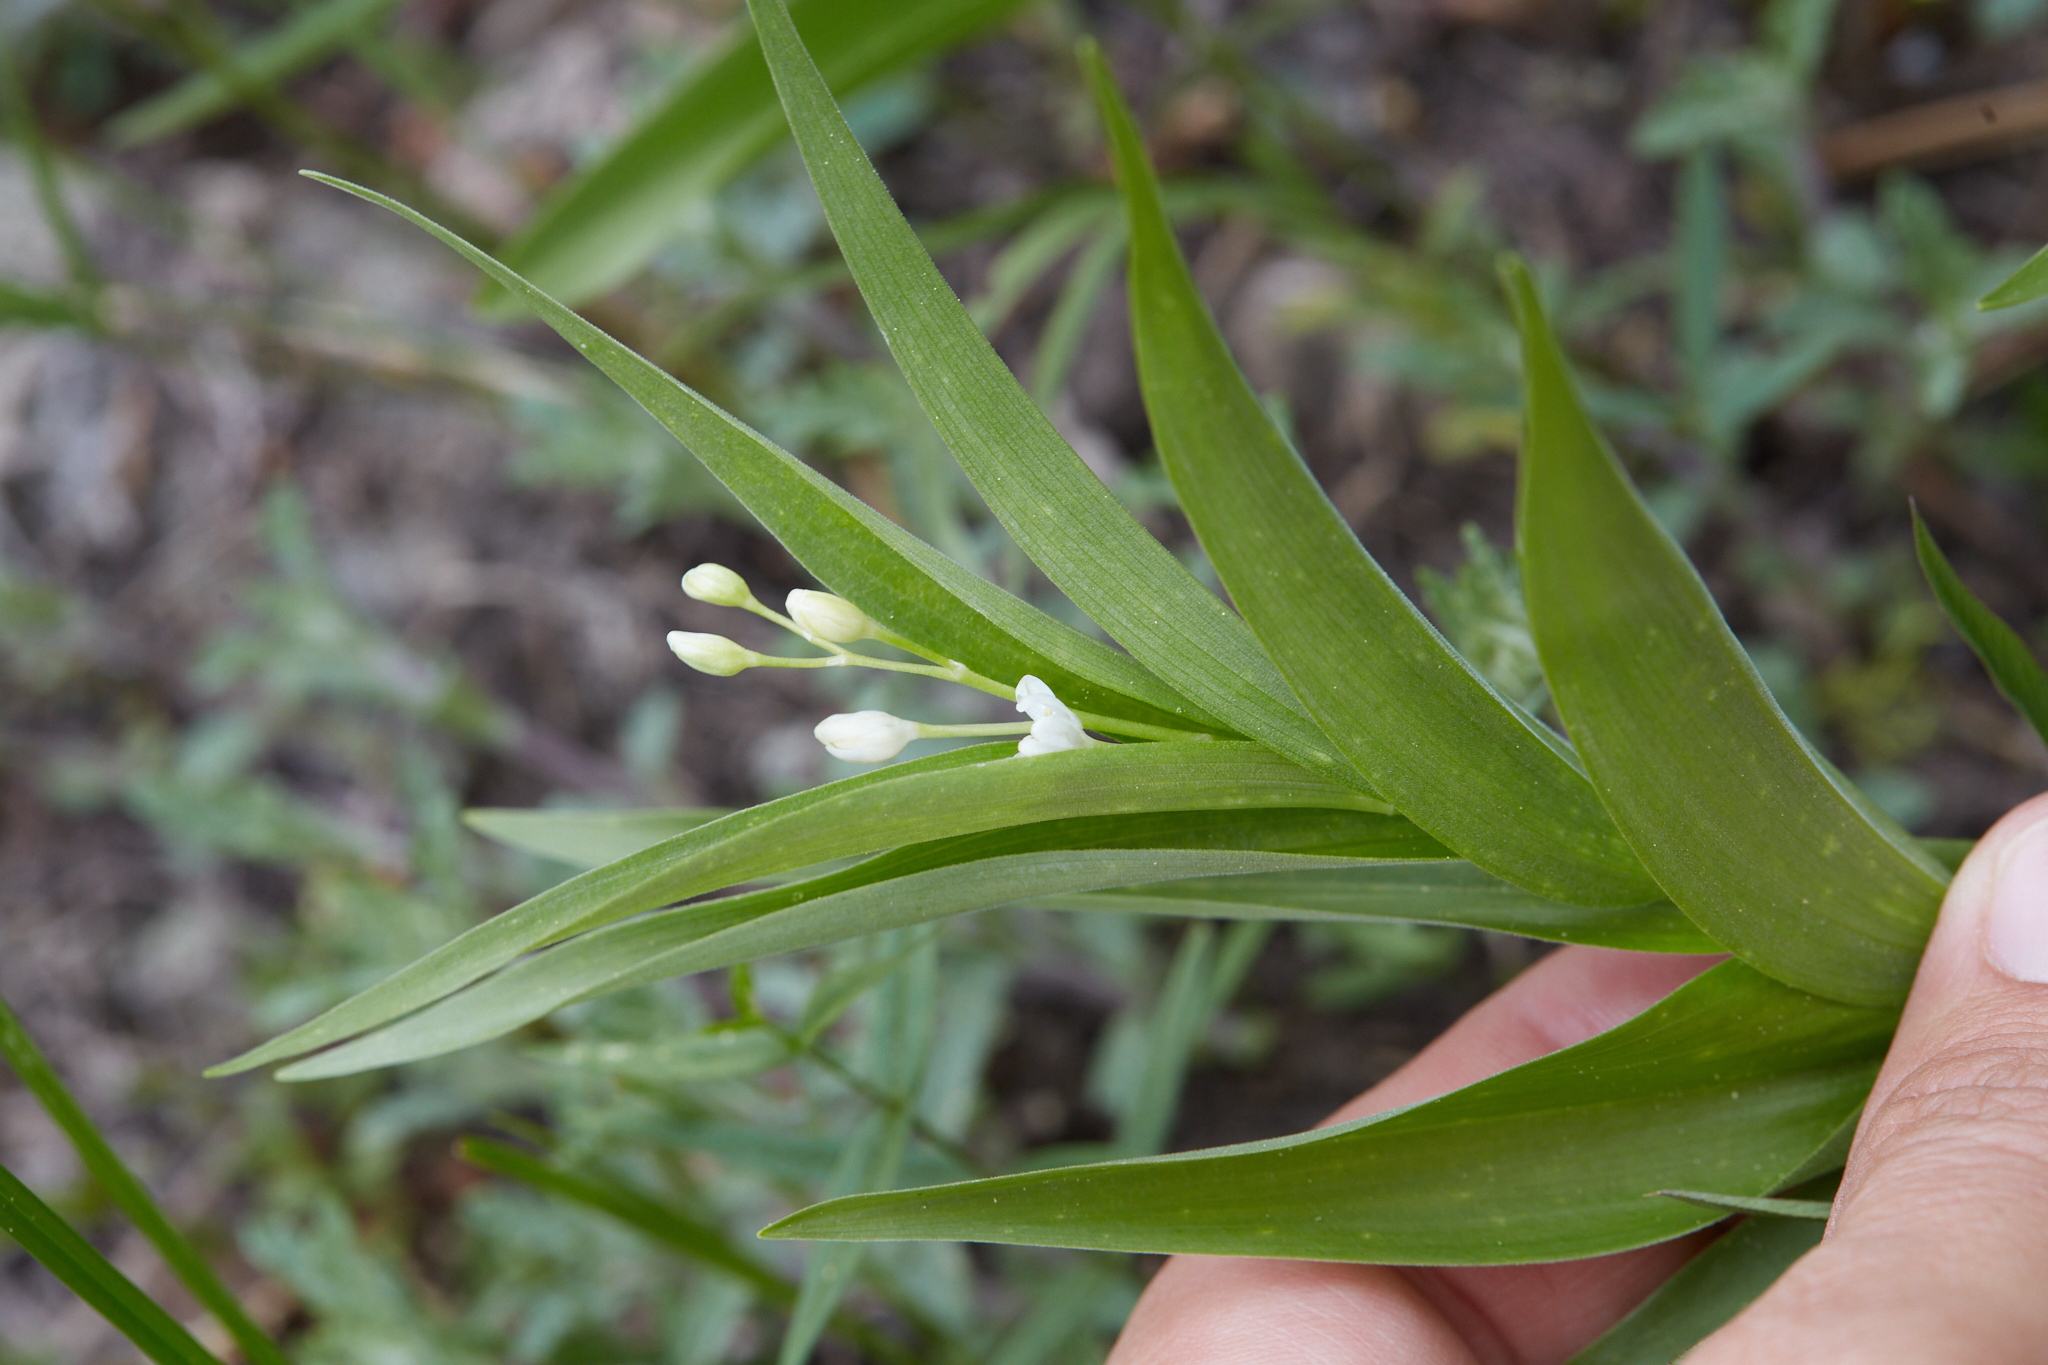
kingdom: Plantae
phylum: Tracheophyta
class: Liliopsida
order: Asparagales
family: Asparagaceae
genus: Maianthemum
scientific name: Maianthemum stellatum
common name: Little false solomon's seal
